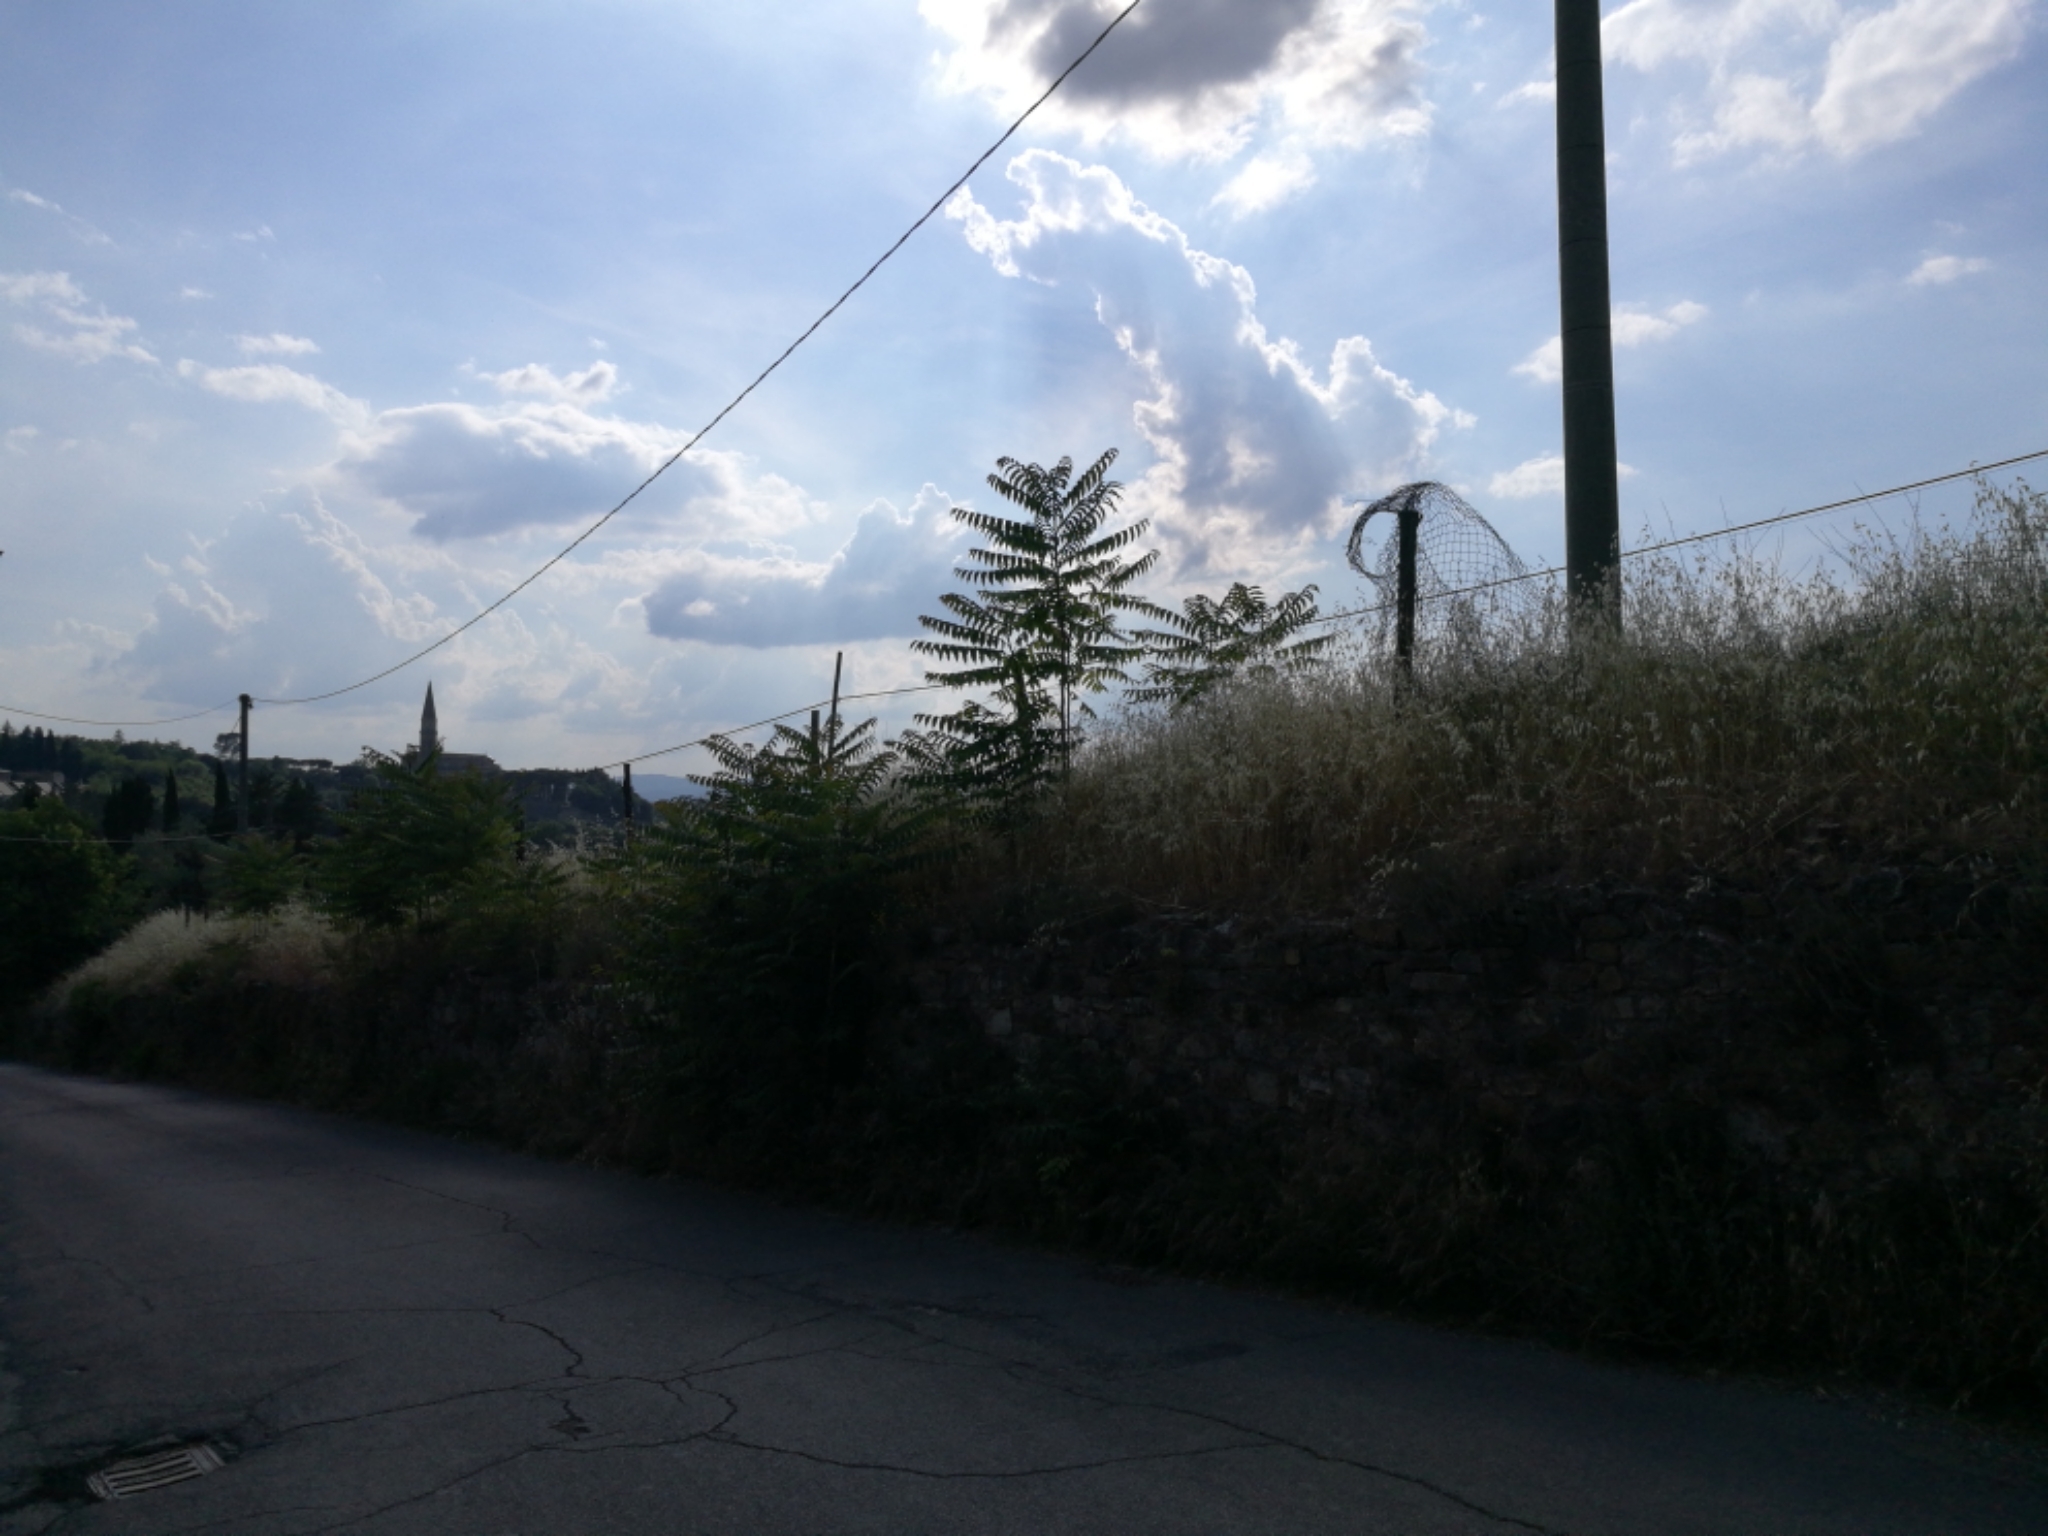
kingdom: Plantae
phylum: Tracheophyta
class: Magnoliopsida
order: Sapindales
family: Simaroubaceae
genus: Ailanthus
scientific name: Ailanthus altissima
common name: Tree-of-heaven
